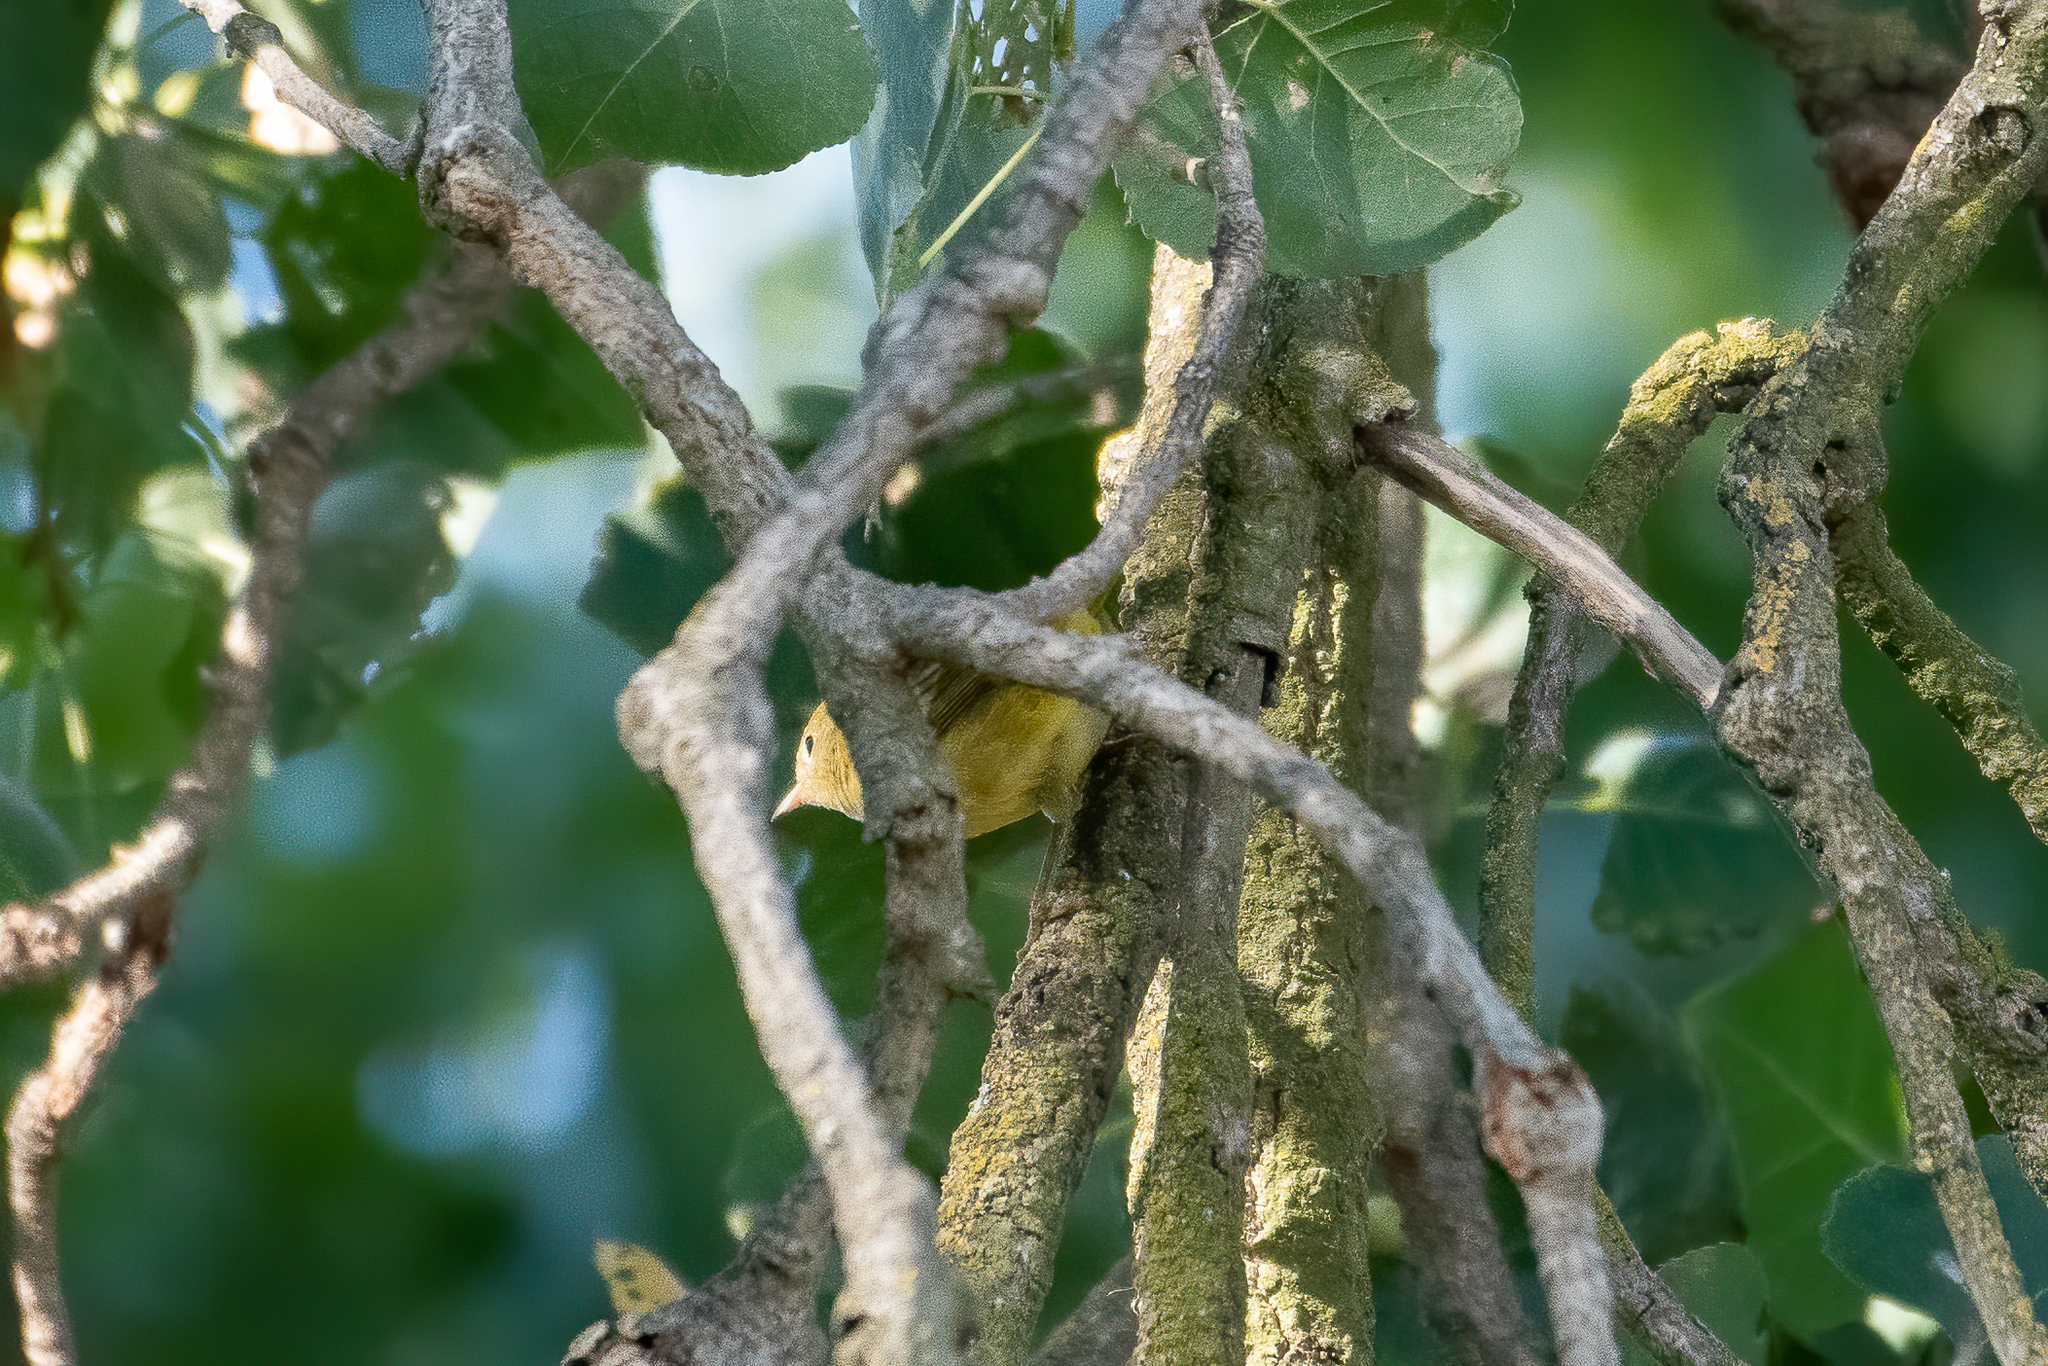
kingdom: Animalia
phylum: Chordata
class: Aves
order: Passeriformes
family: Parulidae
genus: Setophaga
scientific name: Setophaga petechia
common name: Yellow warbler
